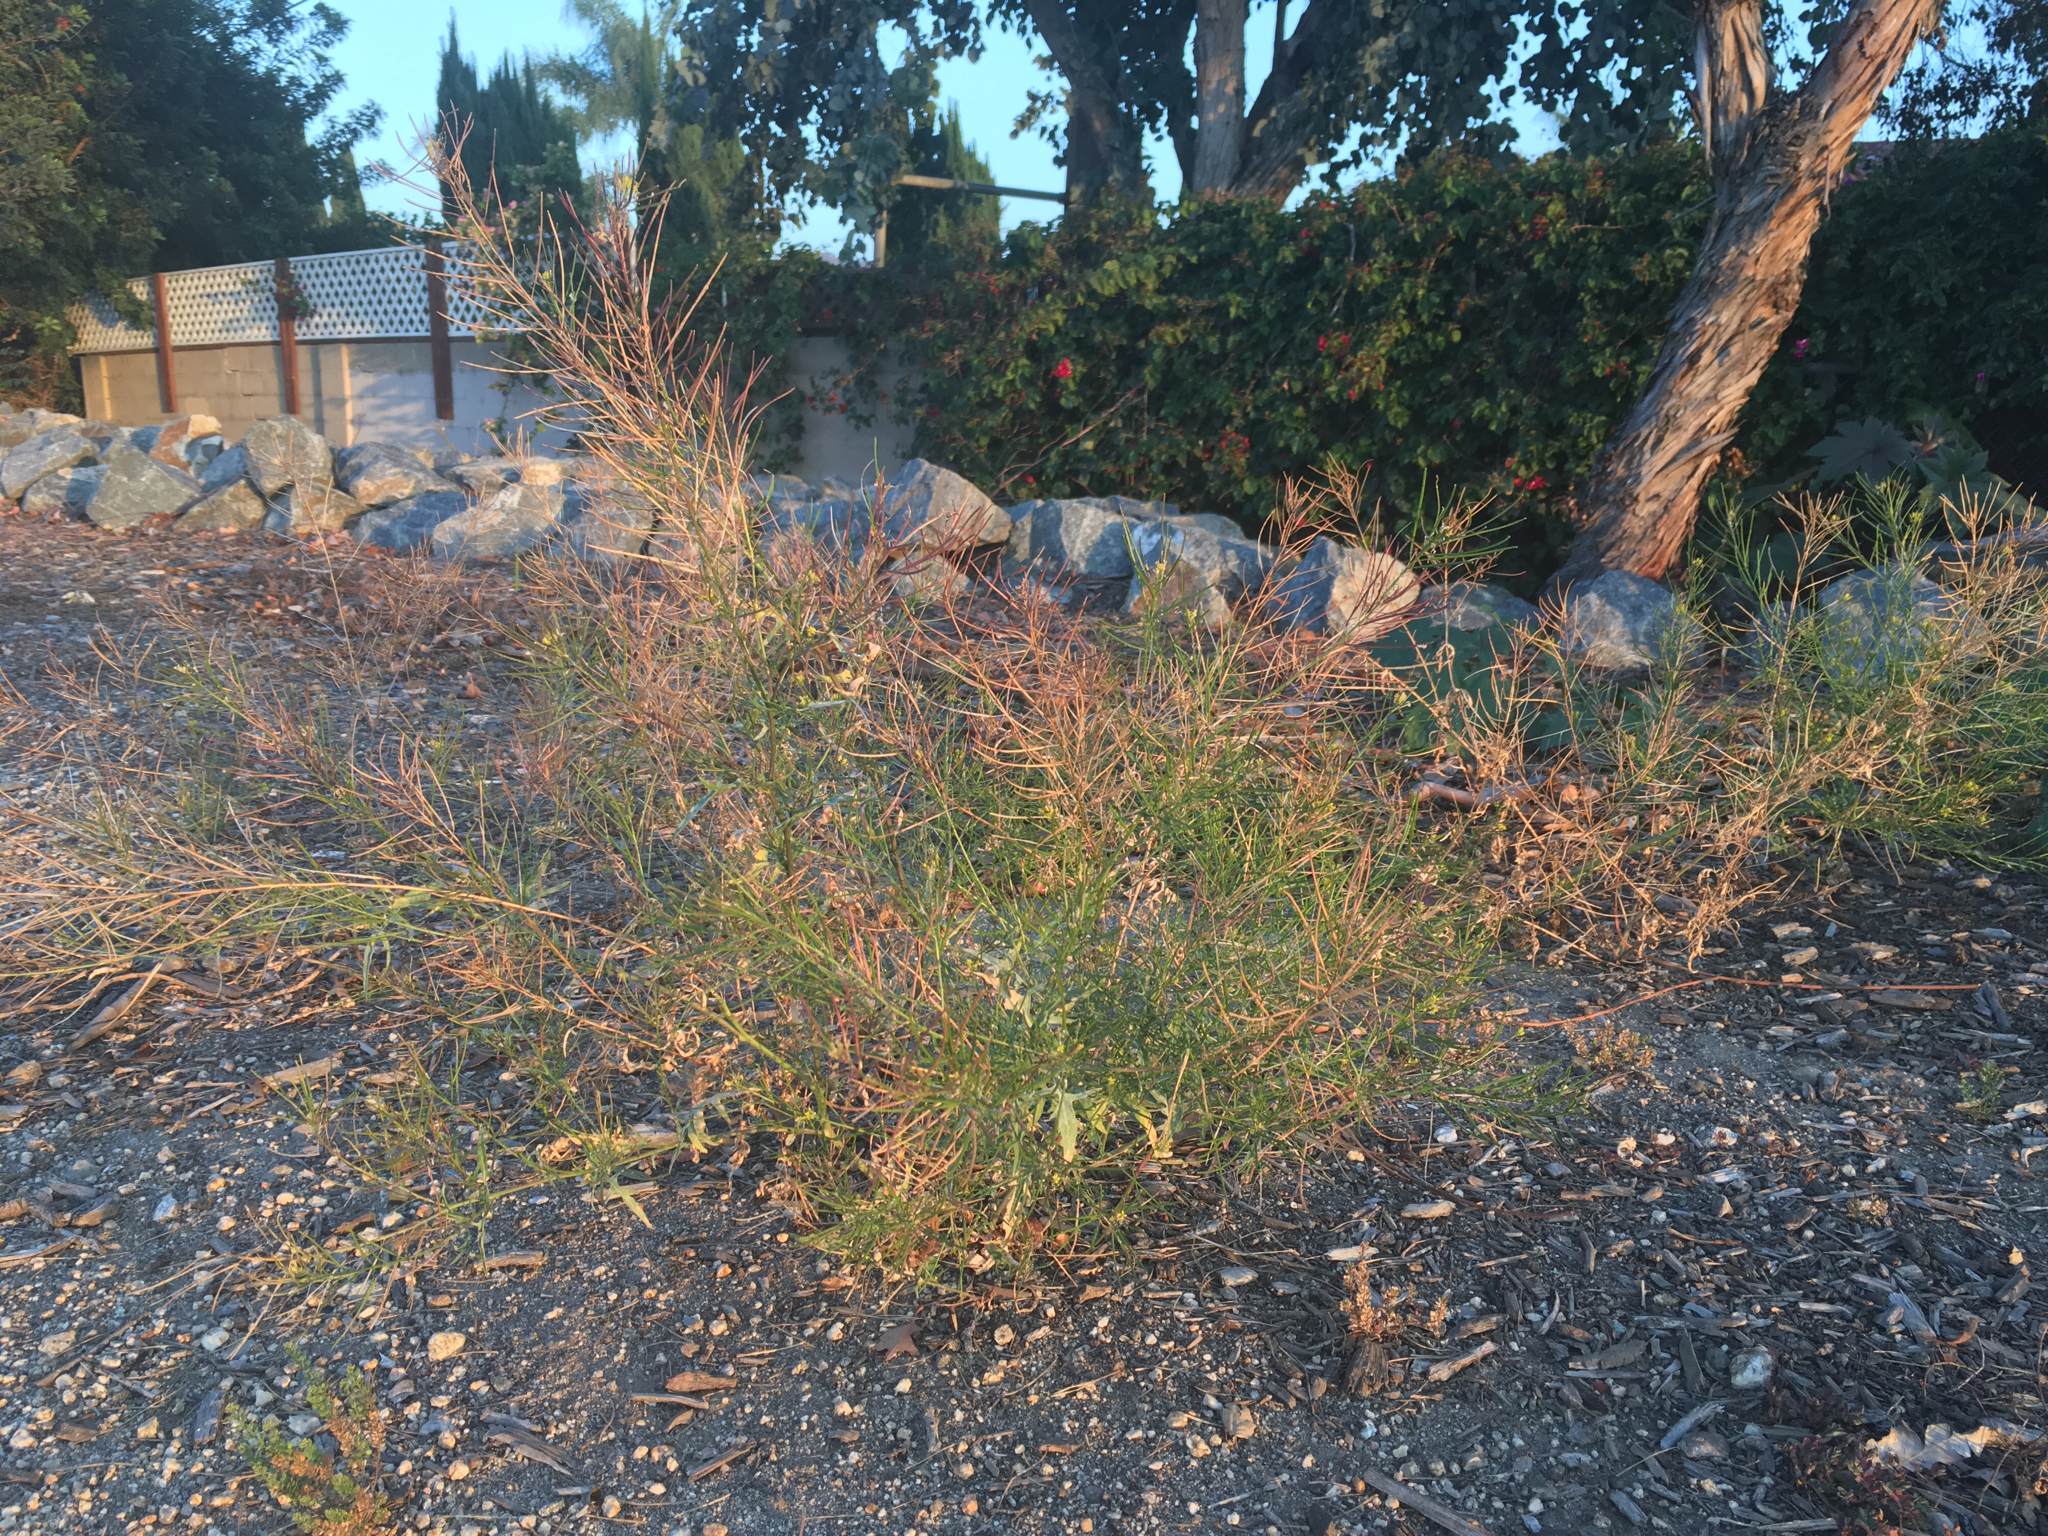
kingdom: Plantae
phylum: Tracheophyta
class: Magnoliopsida
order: Brassicales
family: Brassicaceae
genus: Sisymbrium
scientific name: Sisymbrium irio
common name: London rocket
